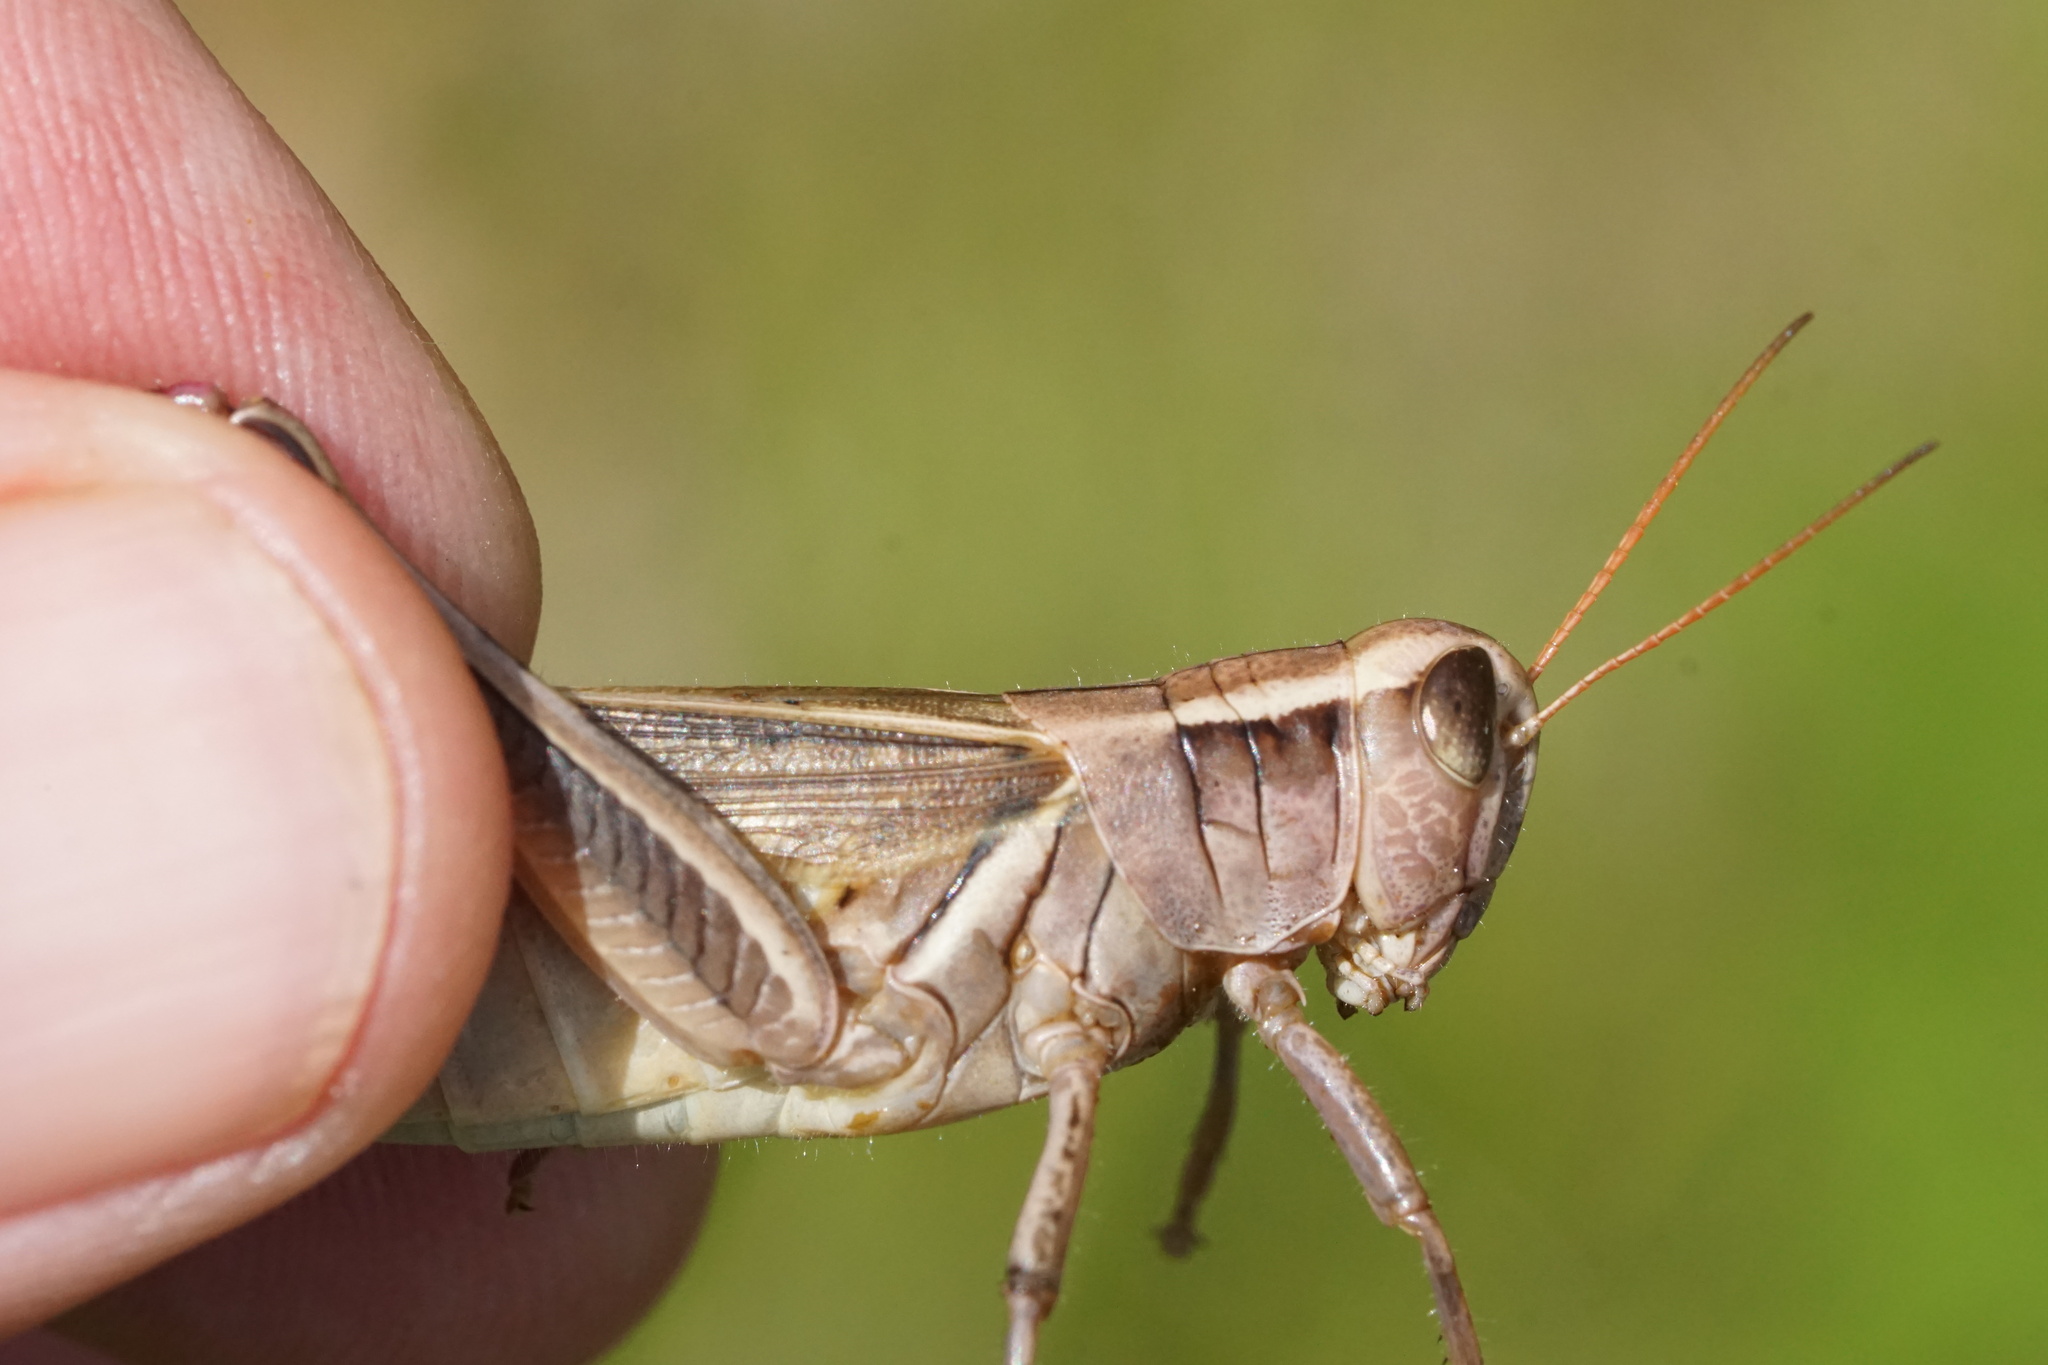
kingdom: Animalia
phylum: Arthropoda
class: Insecta
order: Orthoptera
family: Acrididae
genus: Melanoplus
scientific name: Melanoplus bivittatus
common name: Two-striped grasshopper
